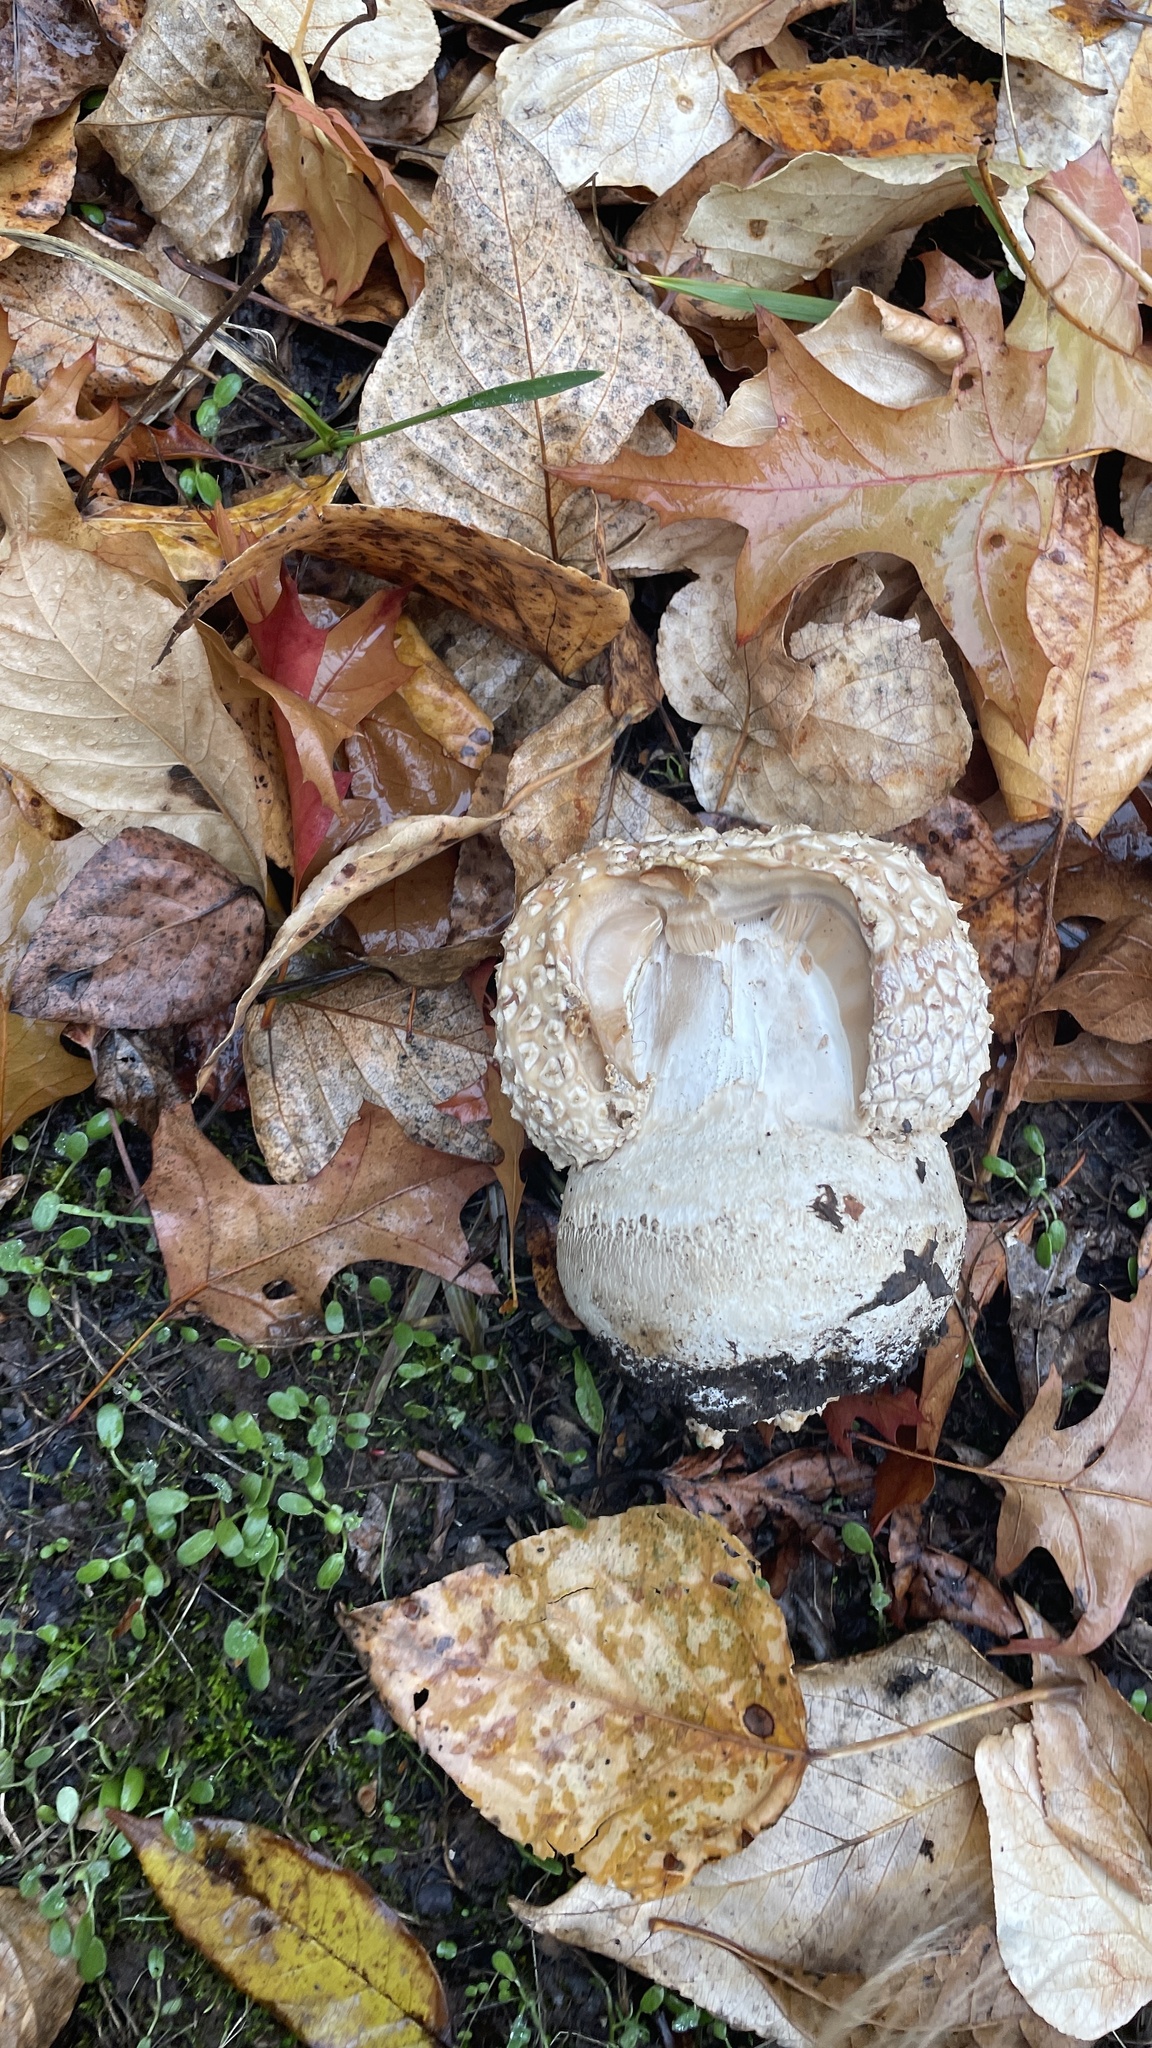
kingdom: Fungi
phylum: Basidiomycota
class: Agaricomycetes
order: Agaricales
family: Amanitaceae
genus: Amanita
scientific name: Amanita muscaria
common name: Fly agaric
